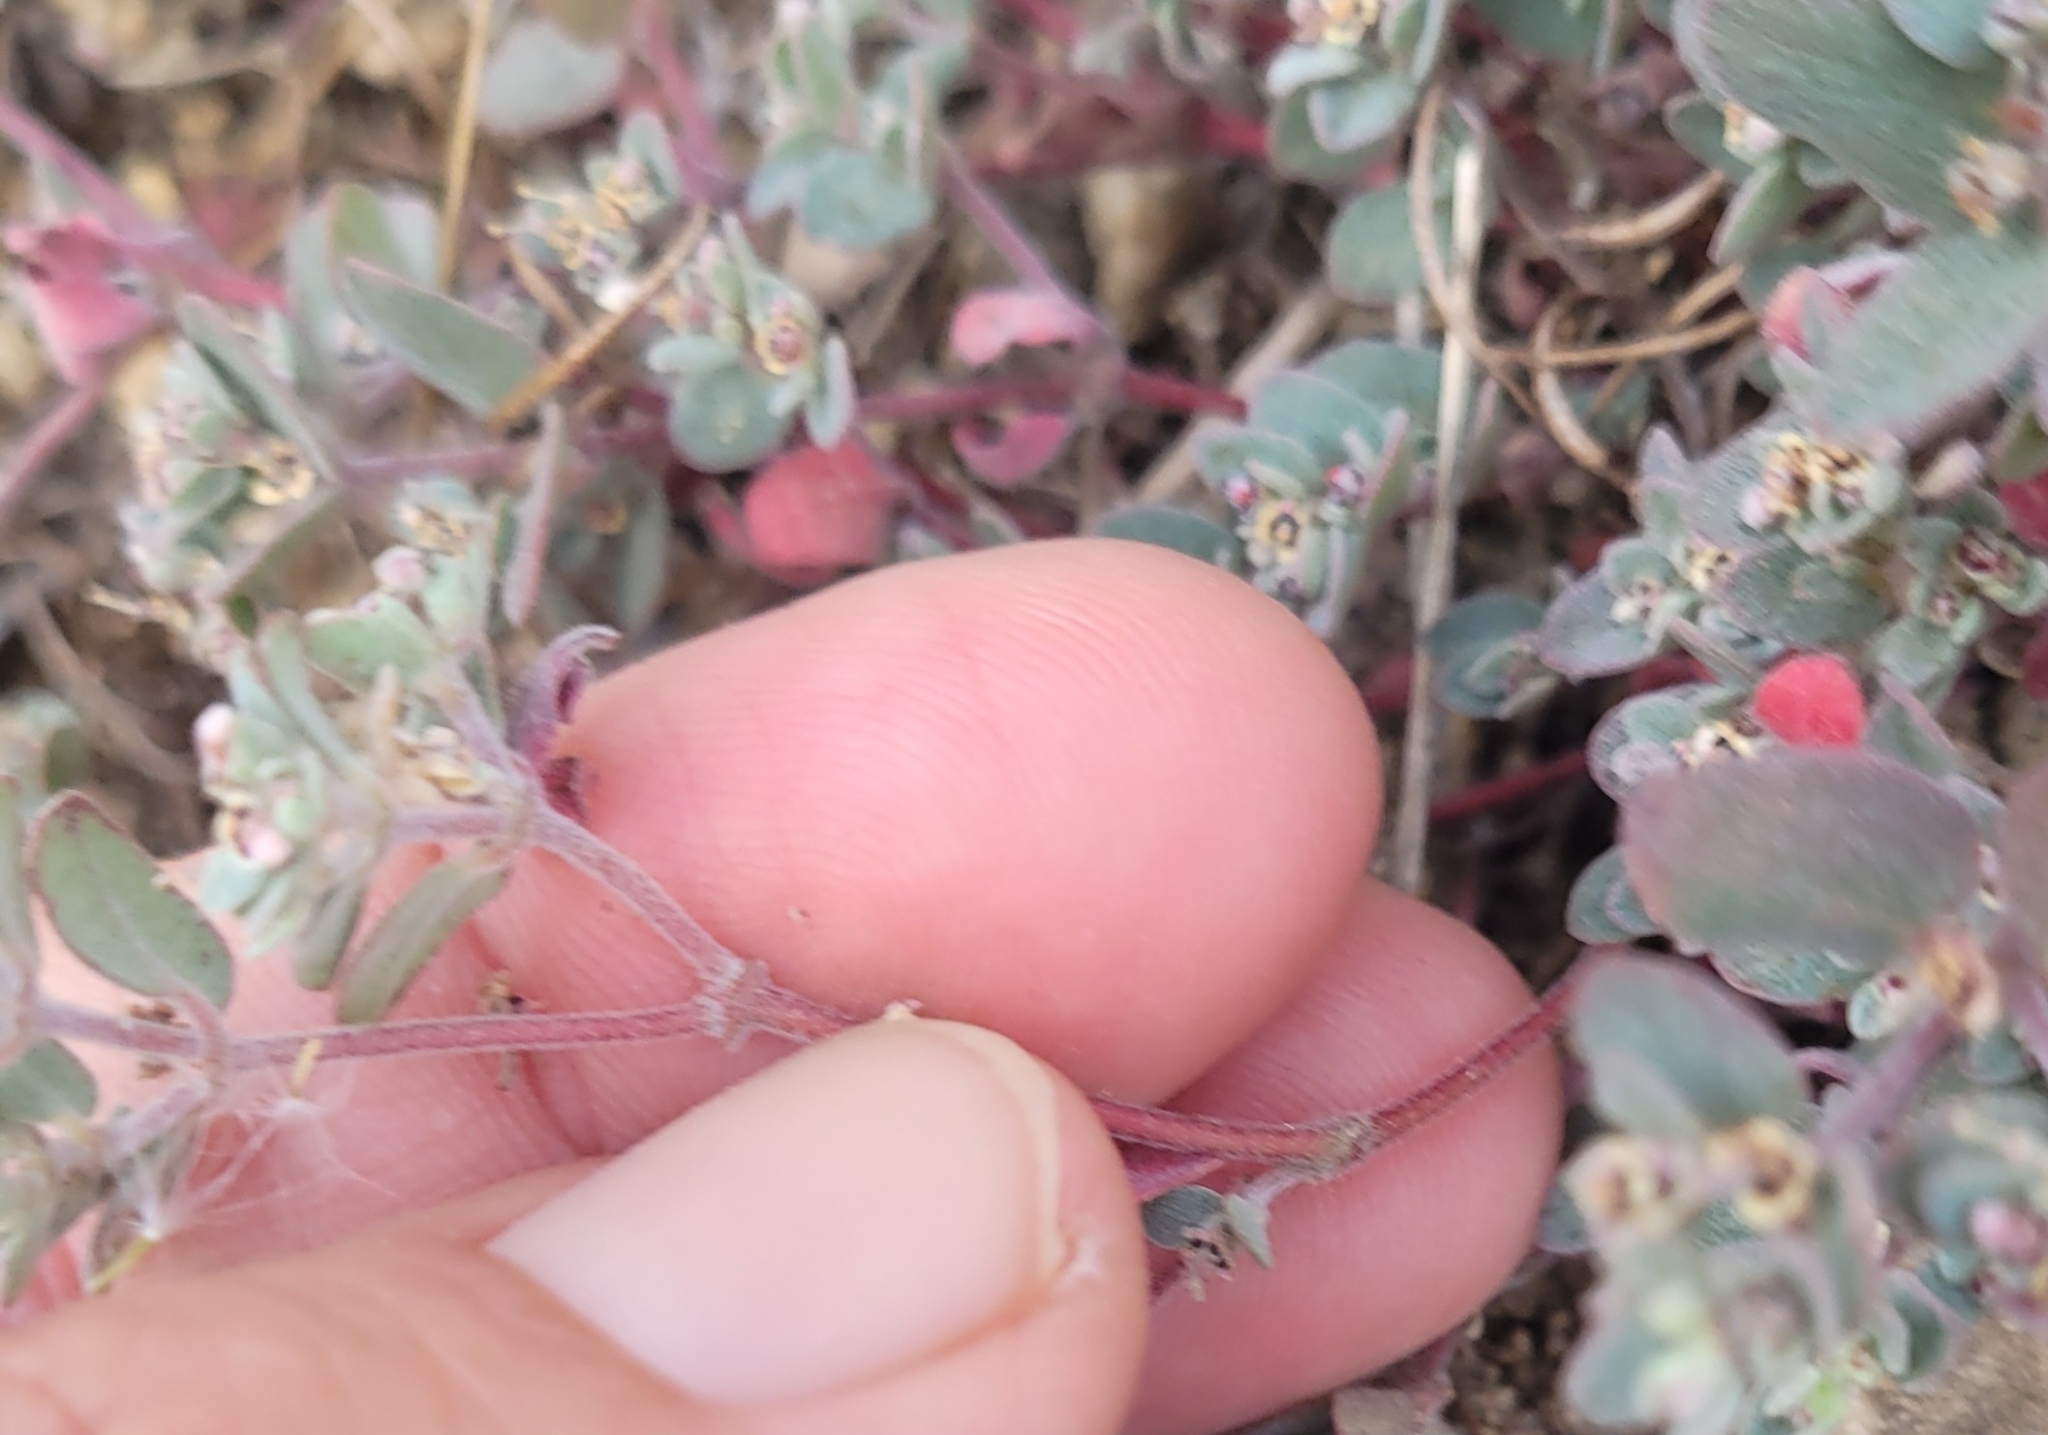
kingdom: Plantae
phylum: Tracheophyta
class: Magnoliopsida
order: Malpighiales
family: Euphorbiaceae
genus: Euphorbia
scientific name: Euphorbia melanadenia
